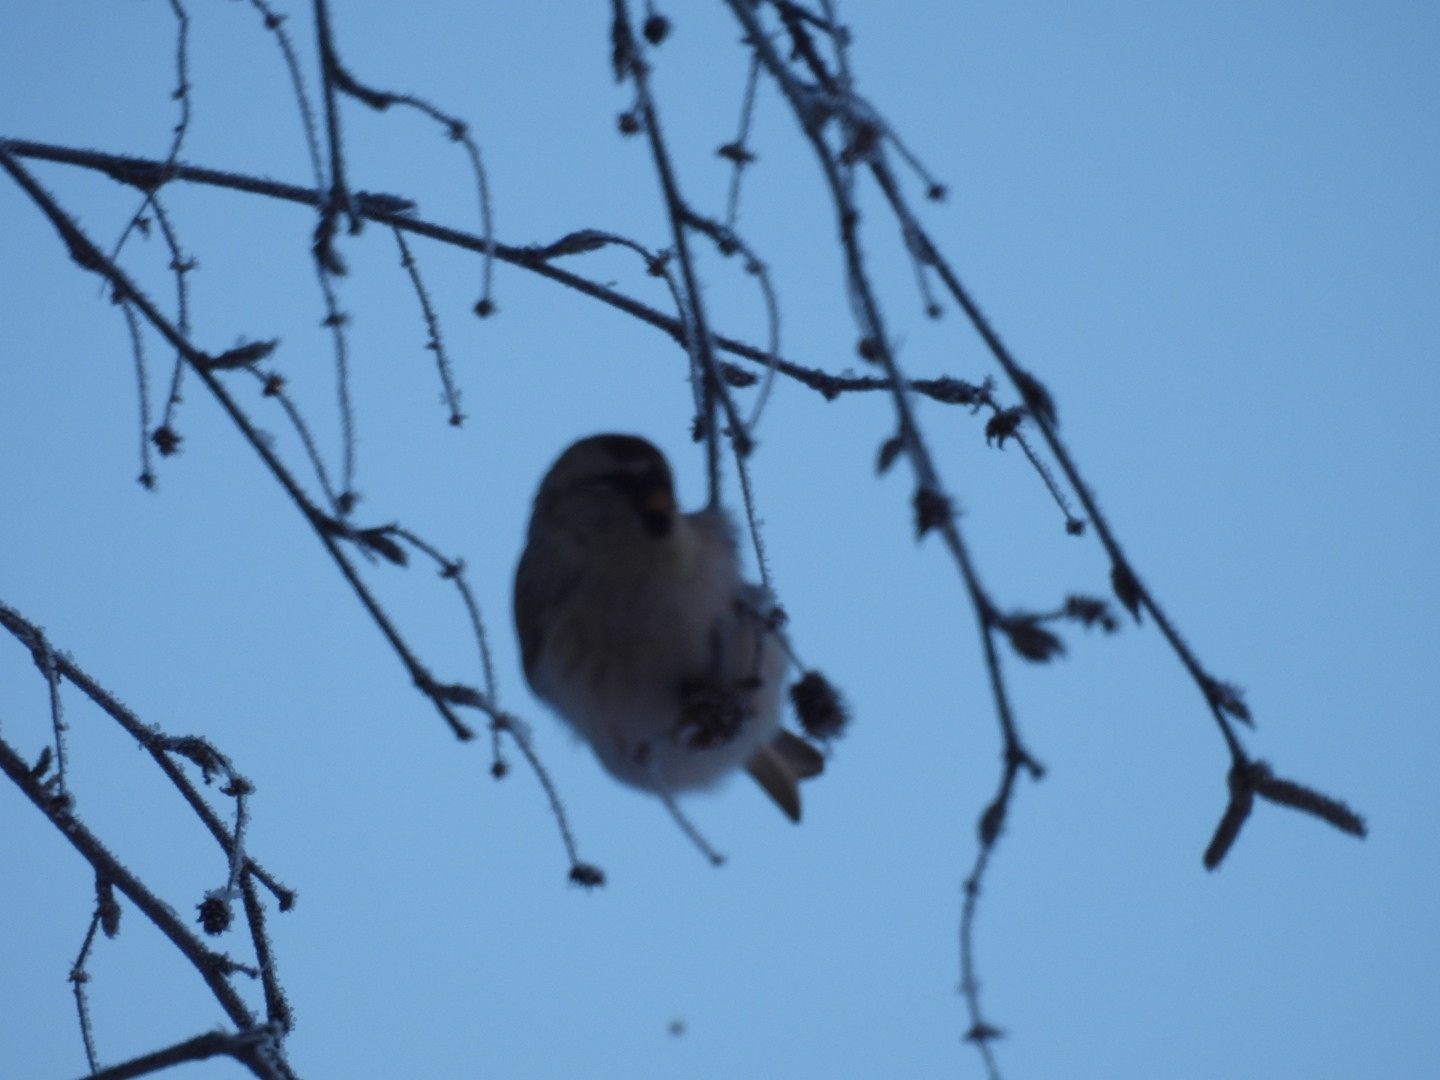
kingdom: Animalia
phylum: Chordata
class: Aves
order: Passeriformes
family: Fringillidae
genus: Acanthis
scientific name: Acanthis flammea
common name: Common redpoll
